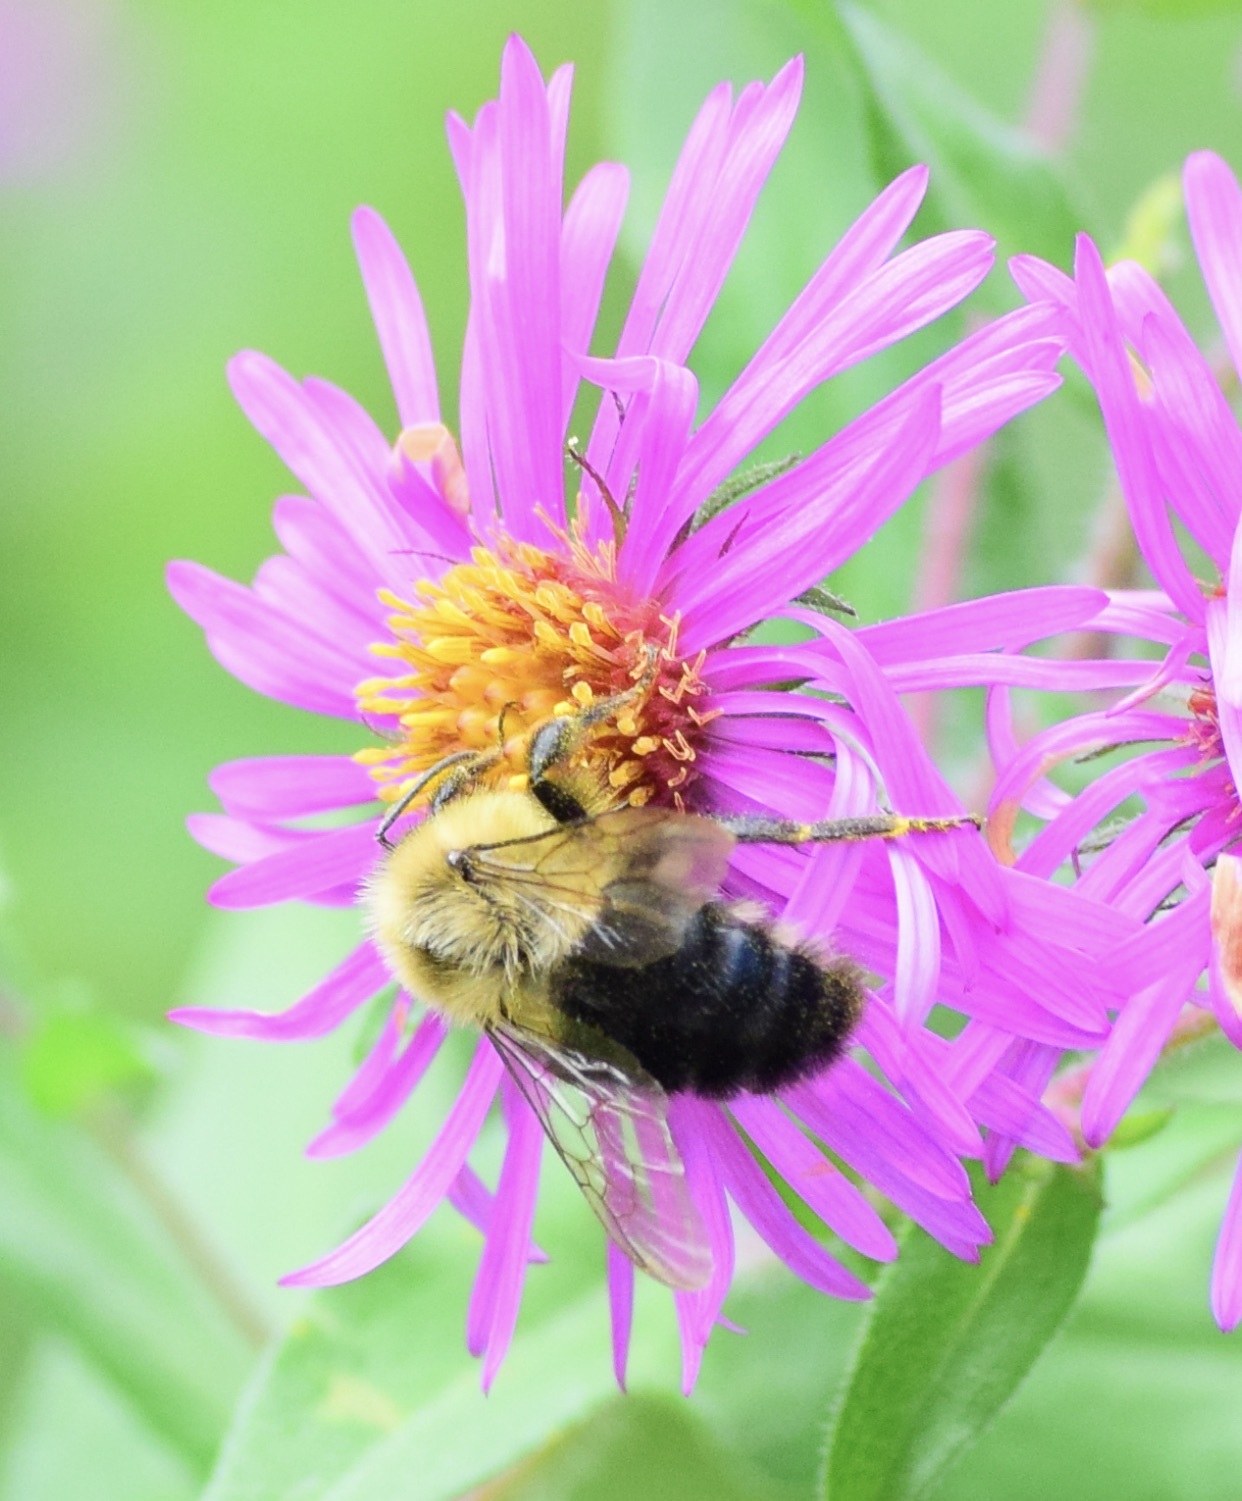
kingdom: Animalia
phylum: Arthropoda
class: Insecta
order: Hymenoptera
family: Apidae
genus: Bombus
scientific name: Bombus impatiens
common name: Common eastern bumble bee
